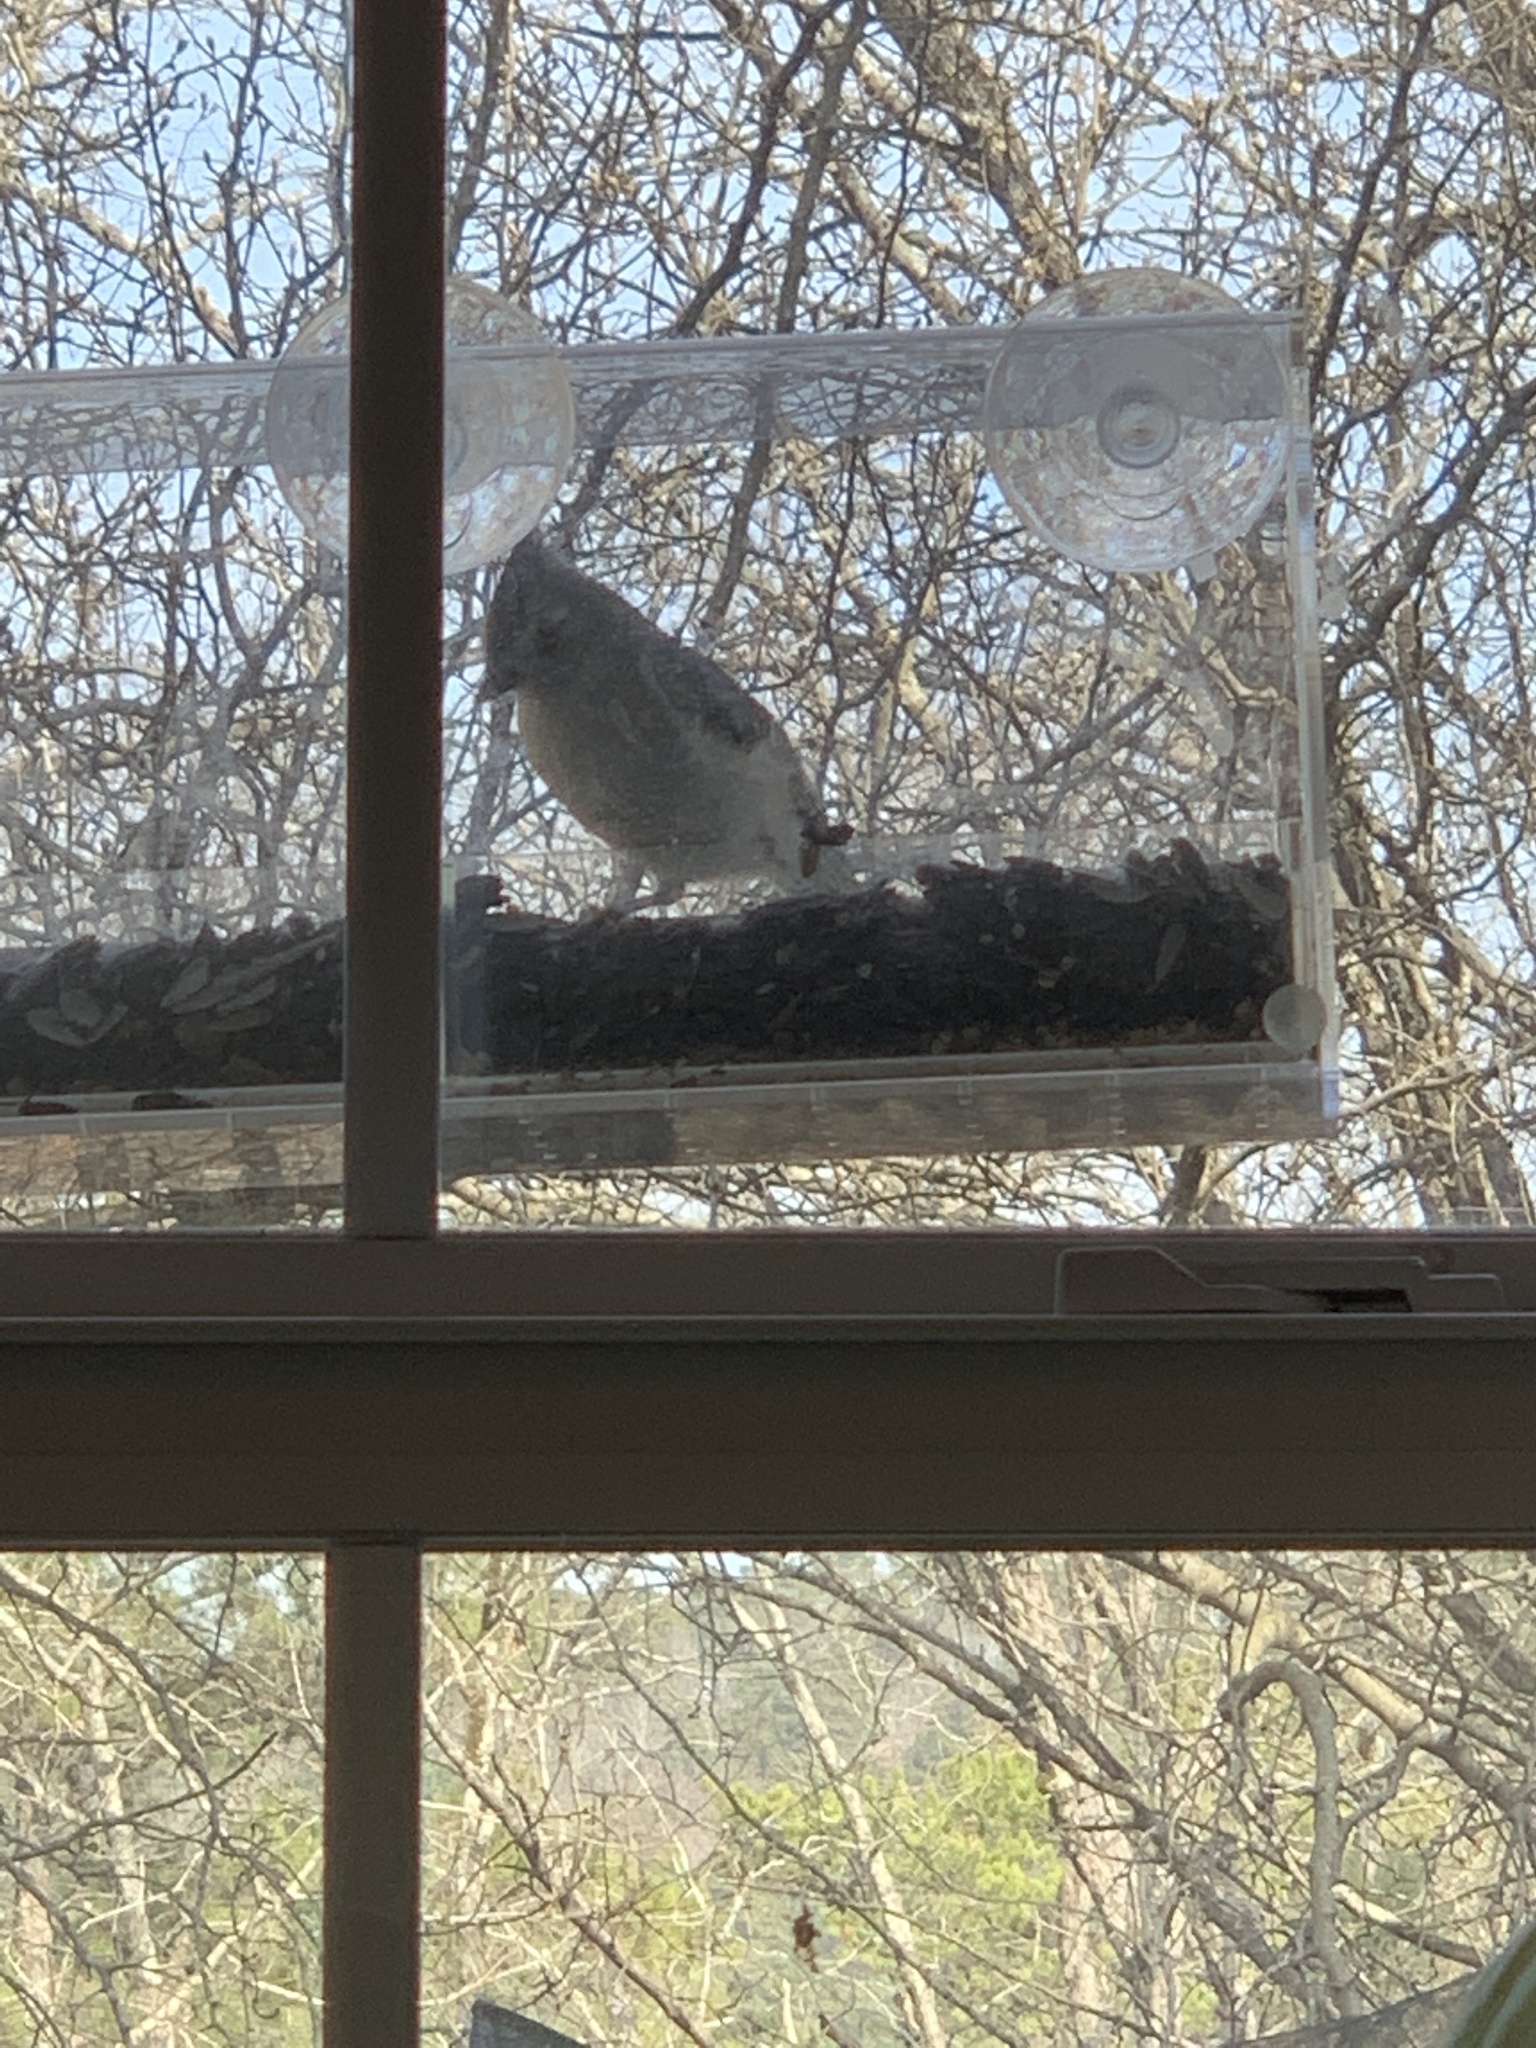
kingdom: Animalia
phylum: Chordata
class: Aves
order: Passeriformes
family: Paridae
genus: Baeolophus
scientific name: Baeolophus bicolor
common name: Tufted titmouse
